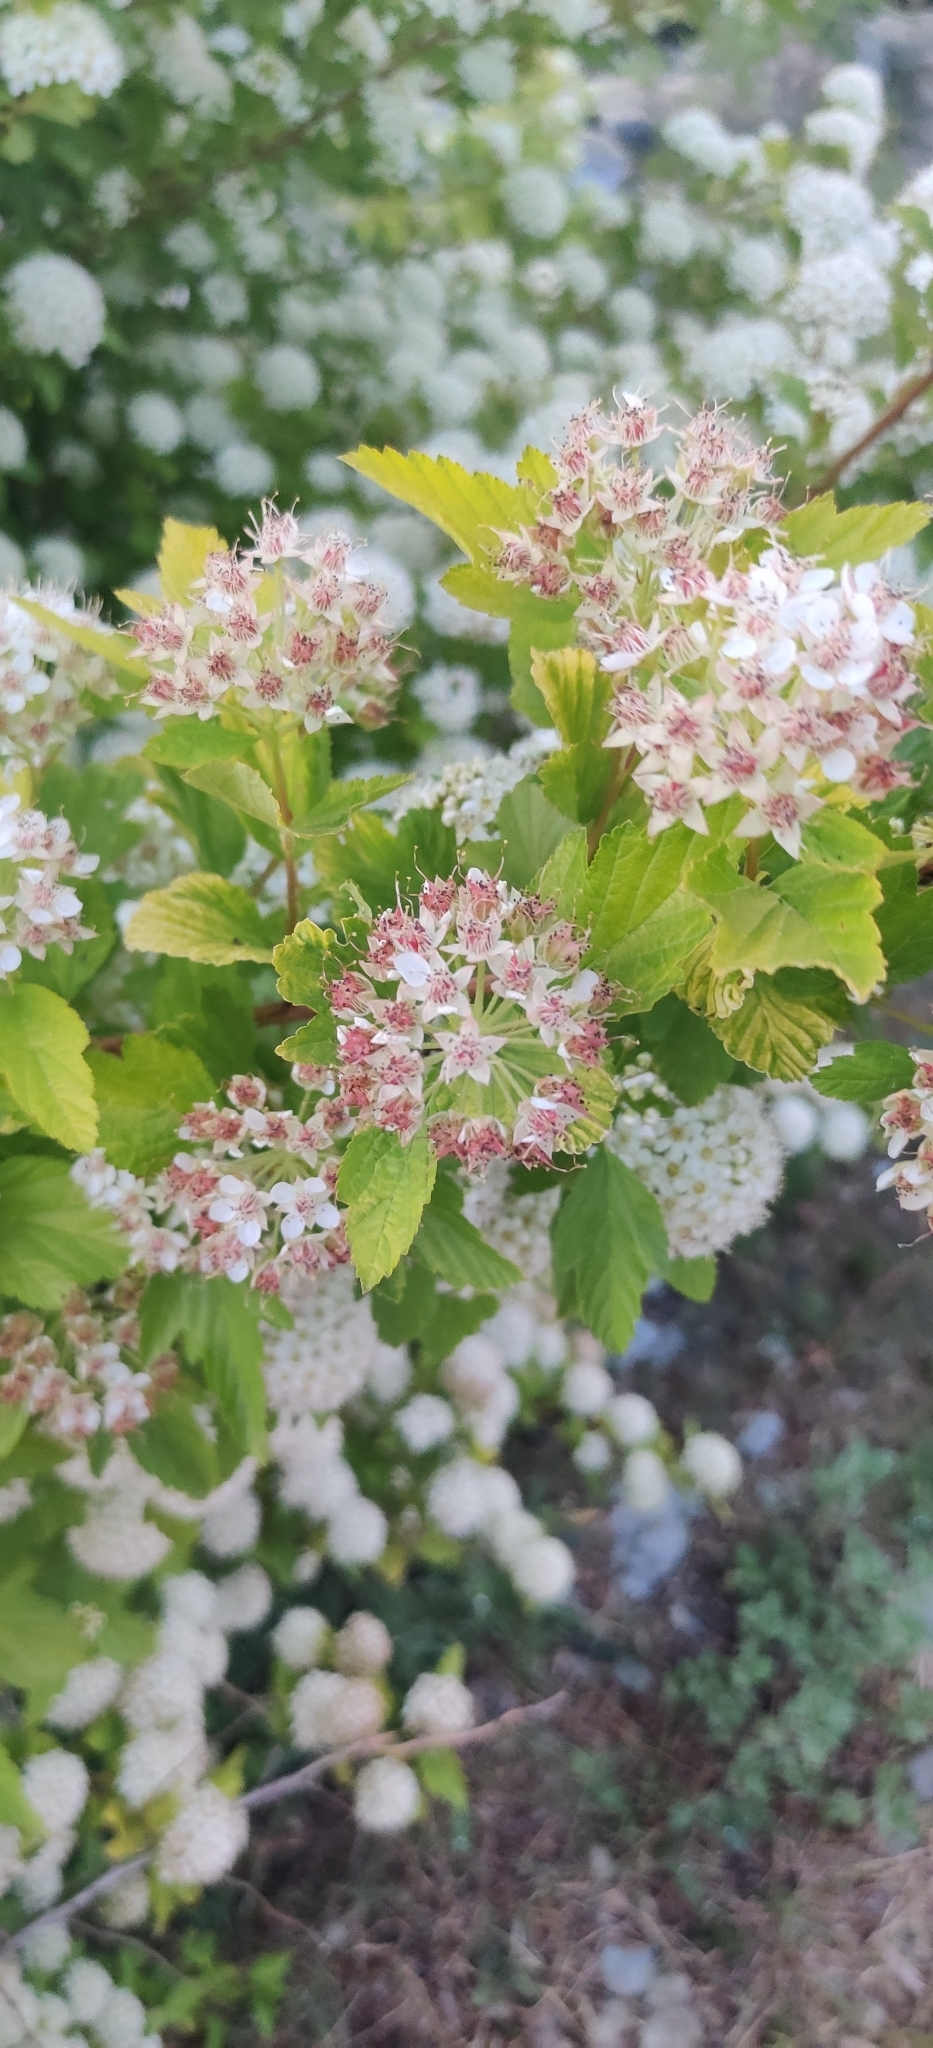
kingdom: Plantae
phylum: Tracheophyta
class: Magnoliopsida
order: Rosales
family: Rosaceae
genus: Physocarpus
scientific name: Physocarpus opulifolius
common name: Ninebark
